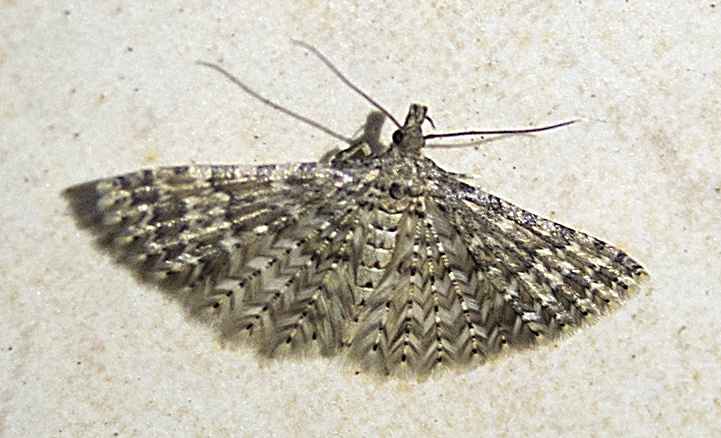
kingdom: Animalia
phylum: Arthropoda
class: Insecta
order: Lepidoptera
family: Alucitidae
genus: Alucita
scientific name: Alucita huebneri
